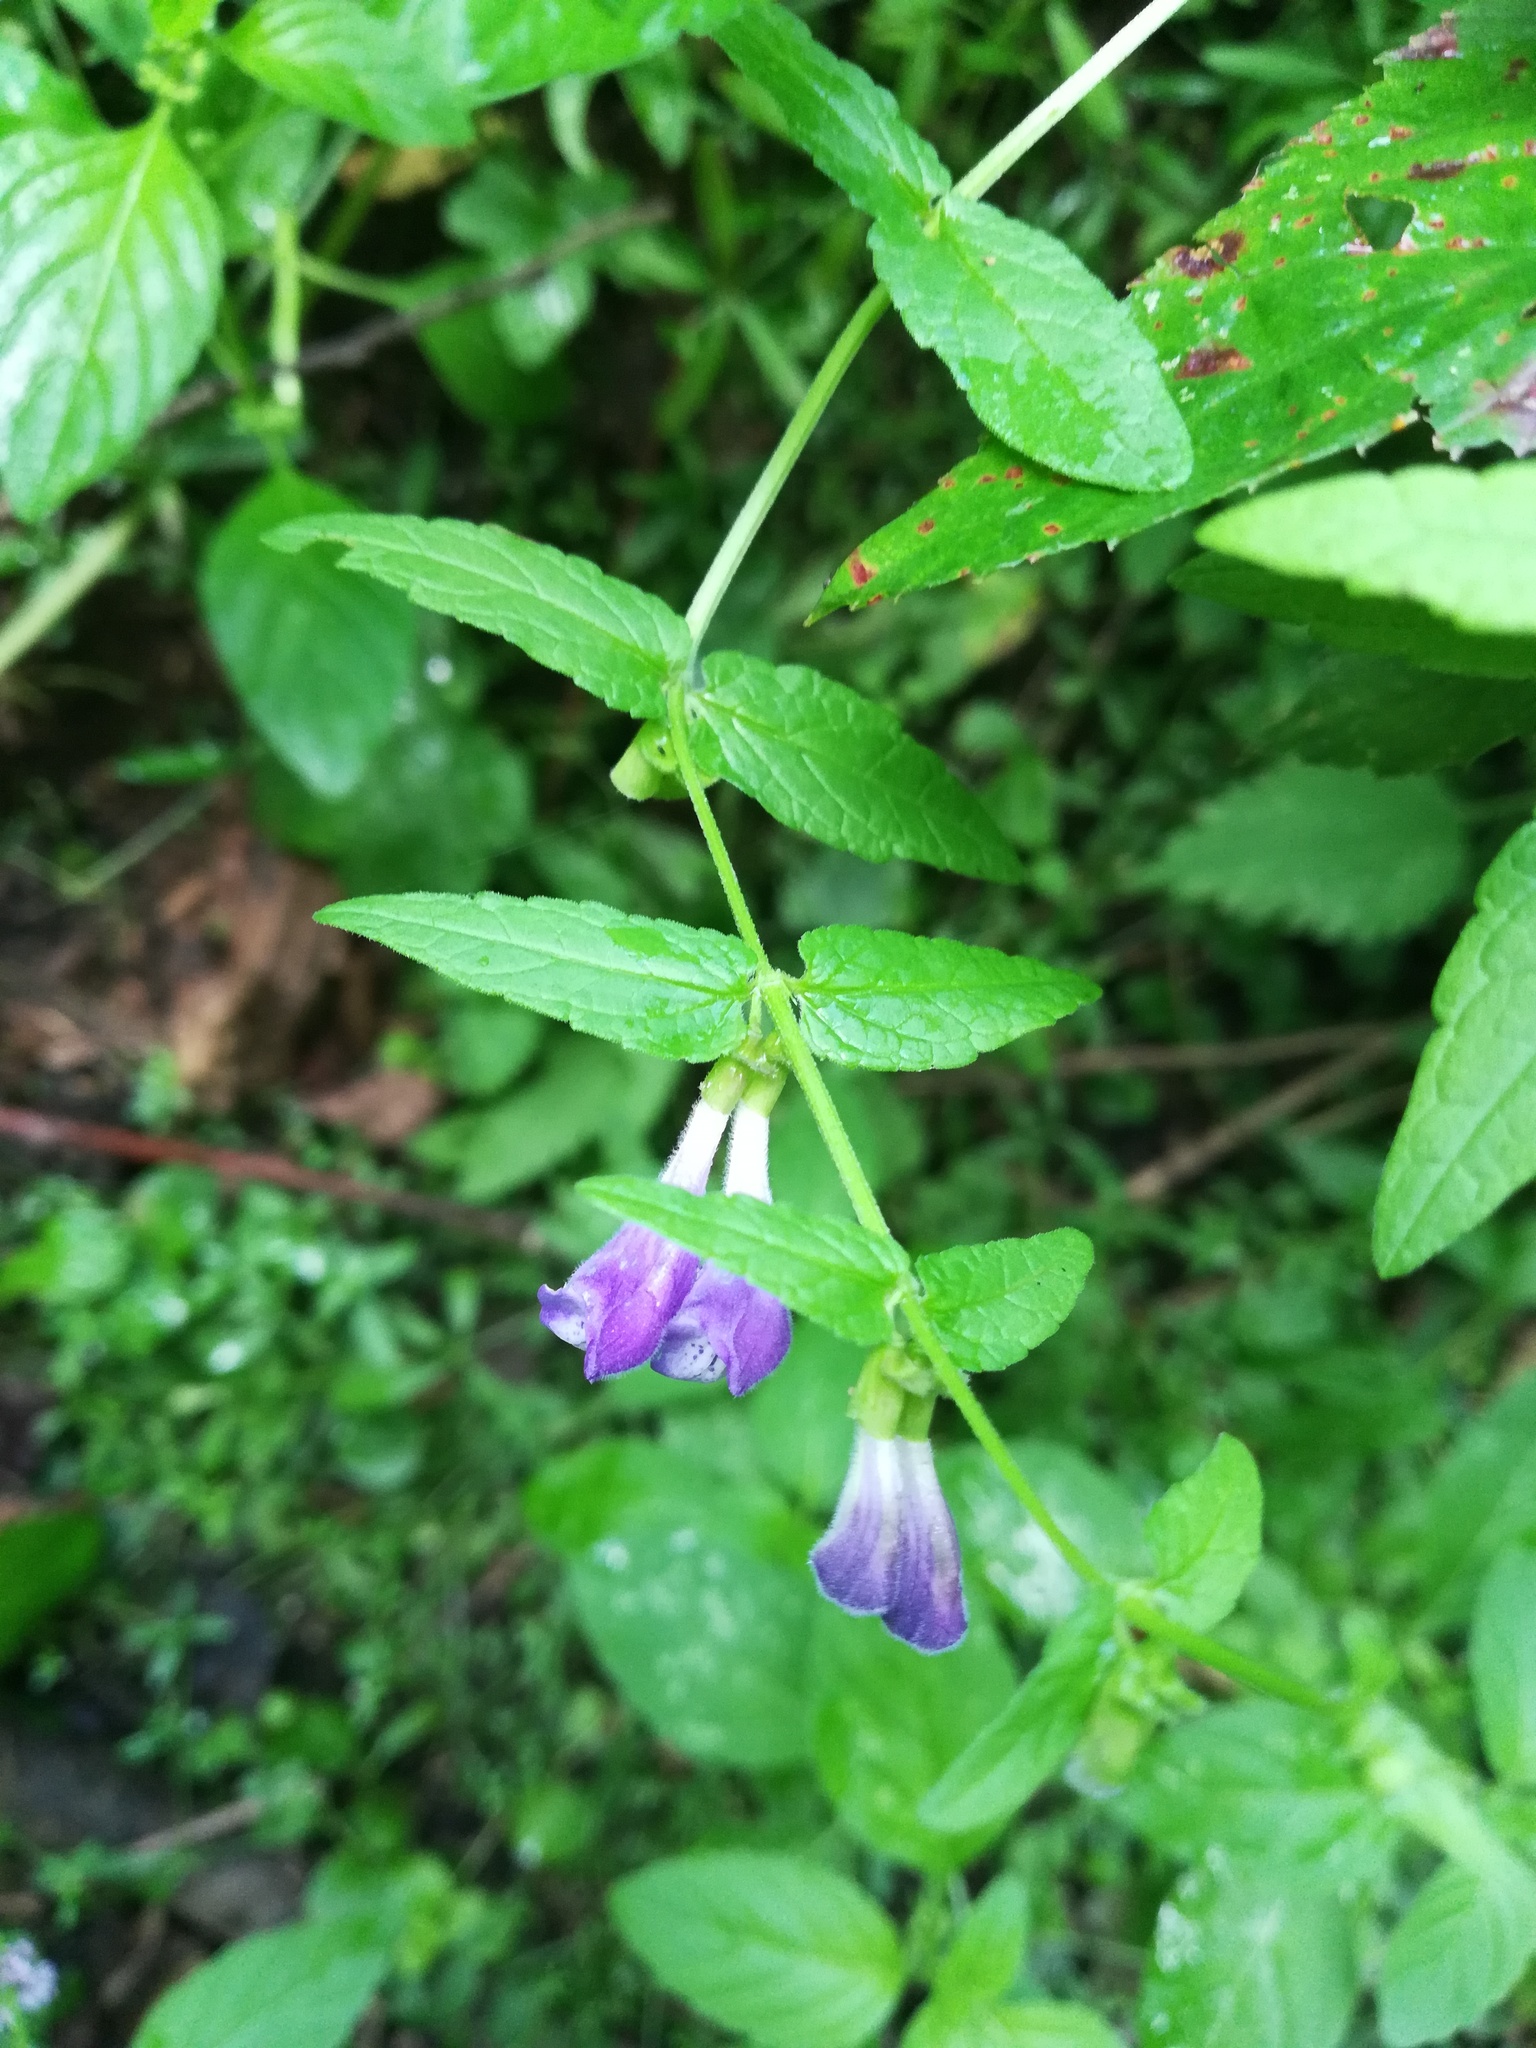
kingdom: Plantae
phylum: Tracheophyta
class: Magnoliopsida
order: Lamiales
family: Lamiaceae
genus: Scutellaria
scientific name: Scutellaria galericulata
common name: Skullcap
